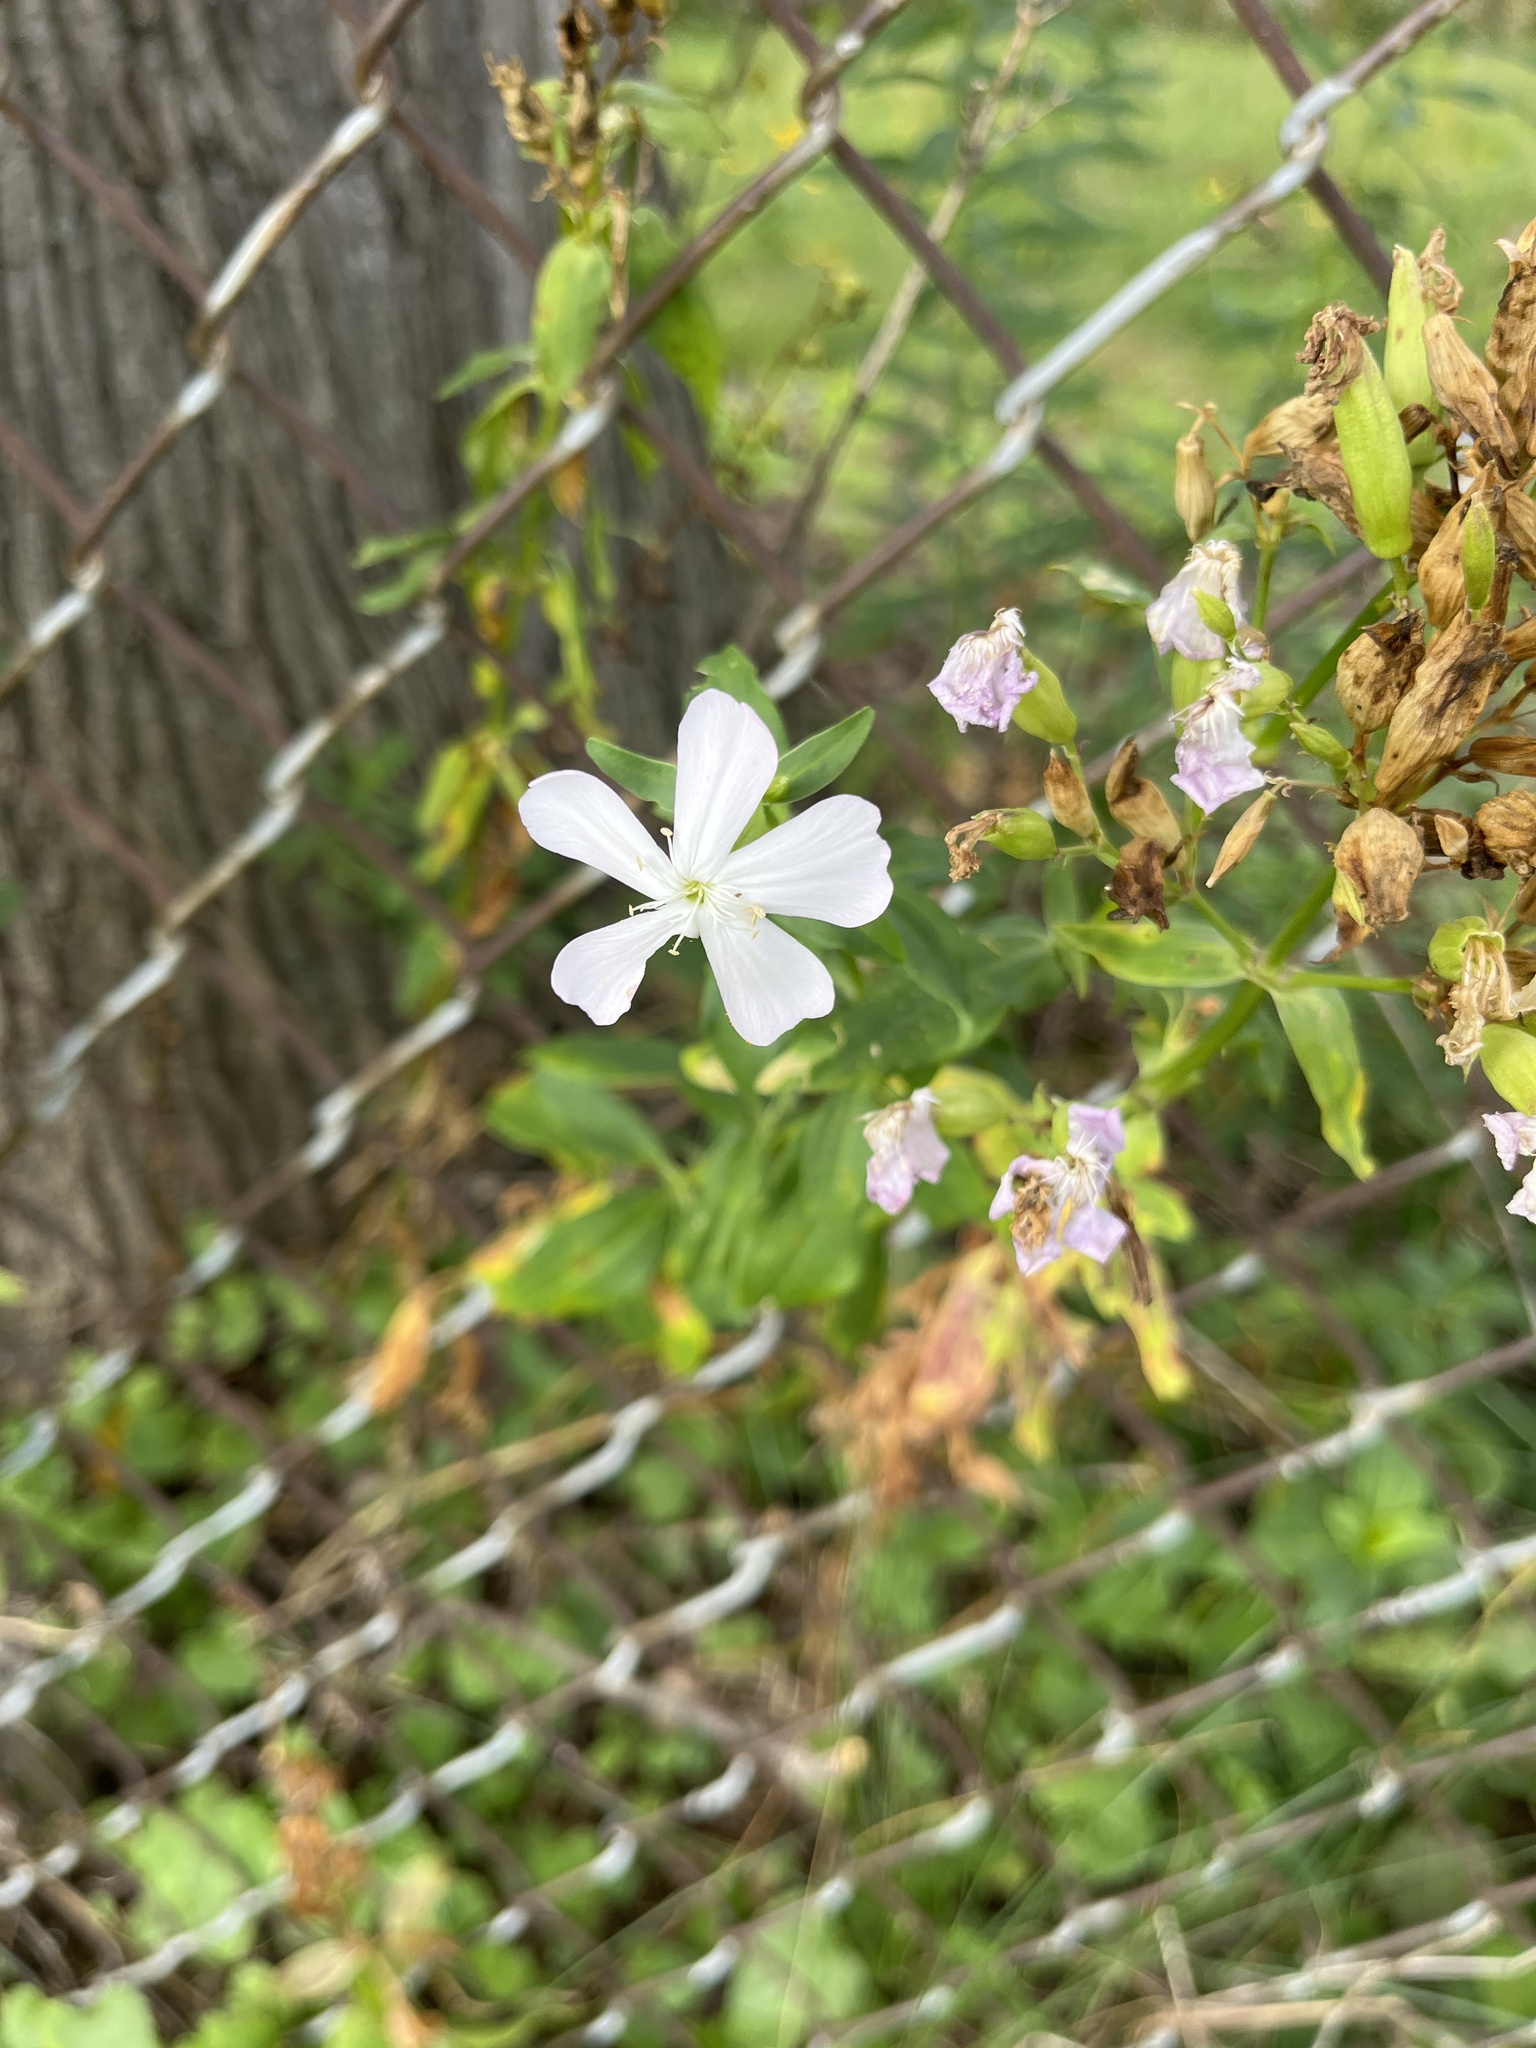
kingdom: Plantae
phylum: Tracheophyta
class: Magnoliopsida
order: Caryophyllales
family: Caryophyllaceae
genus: Saponaria
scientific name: Saponaria officinalis
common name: Soapwort
